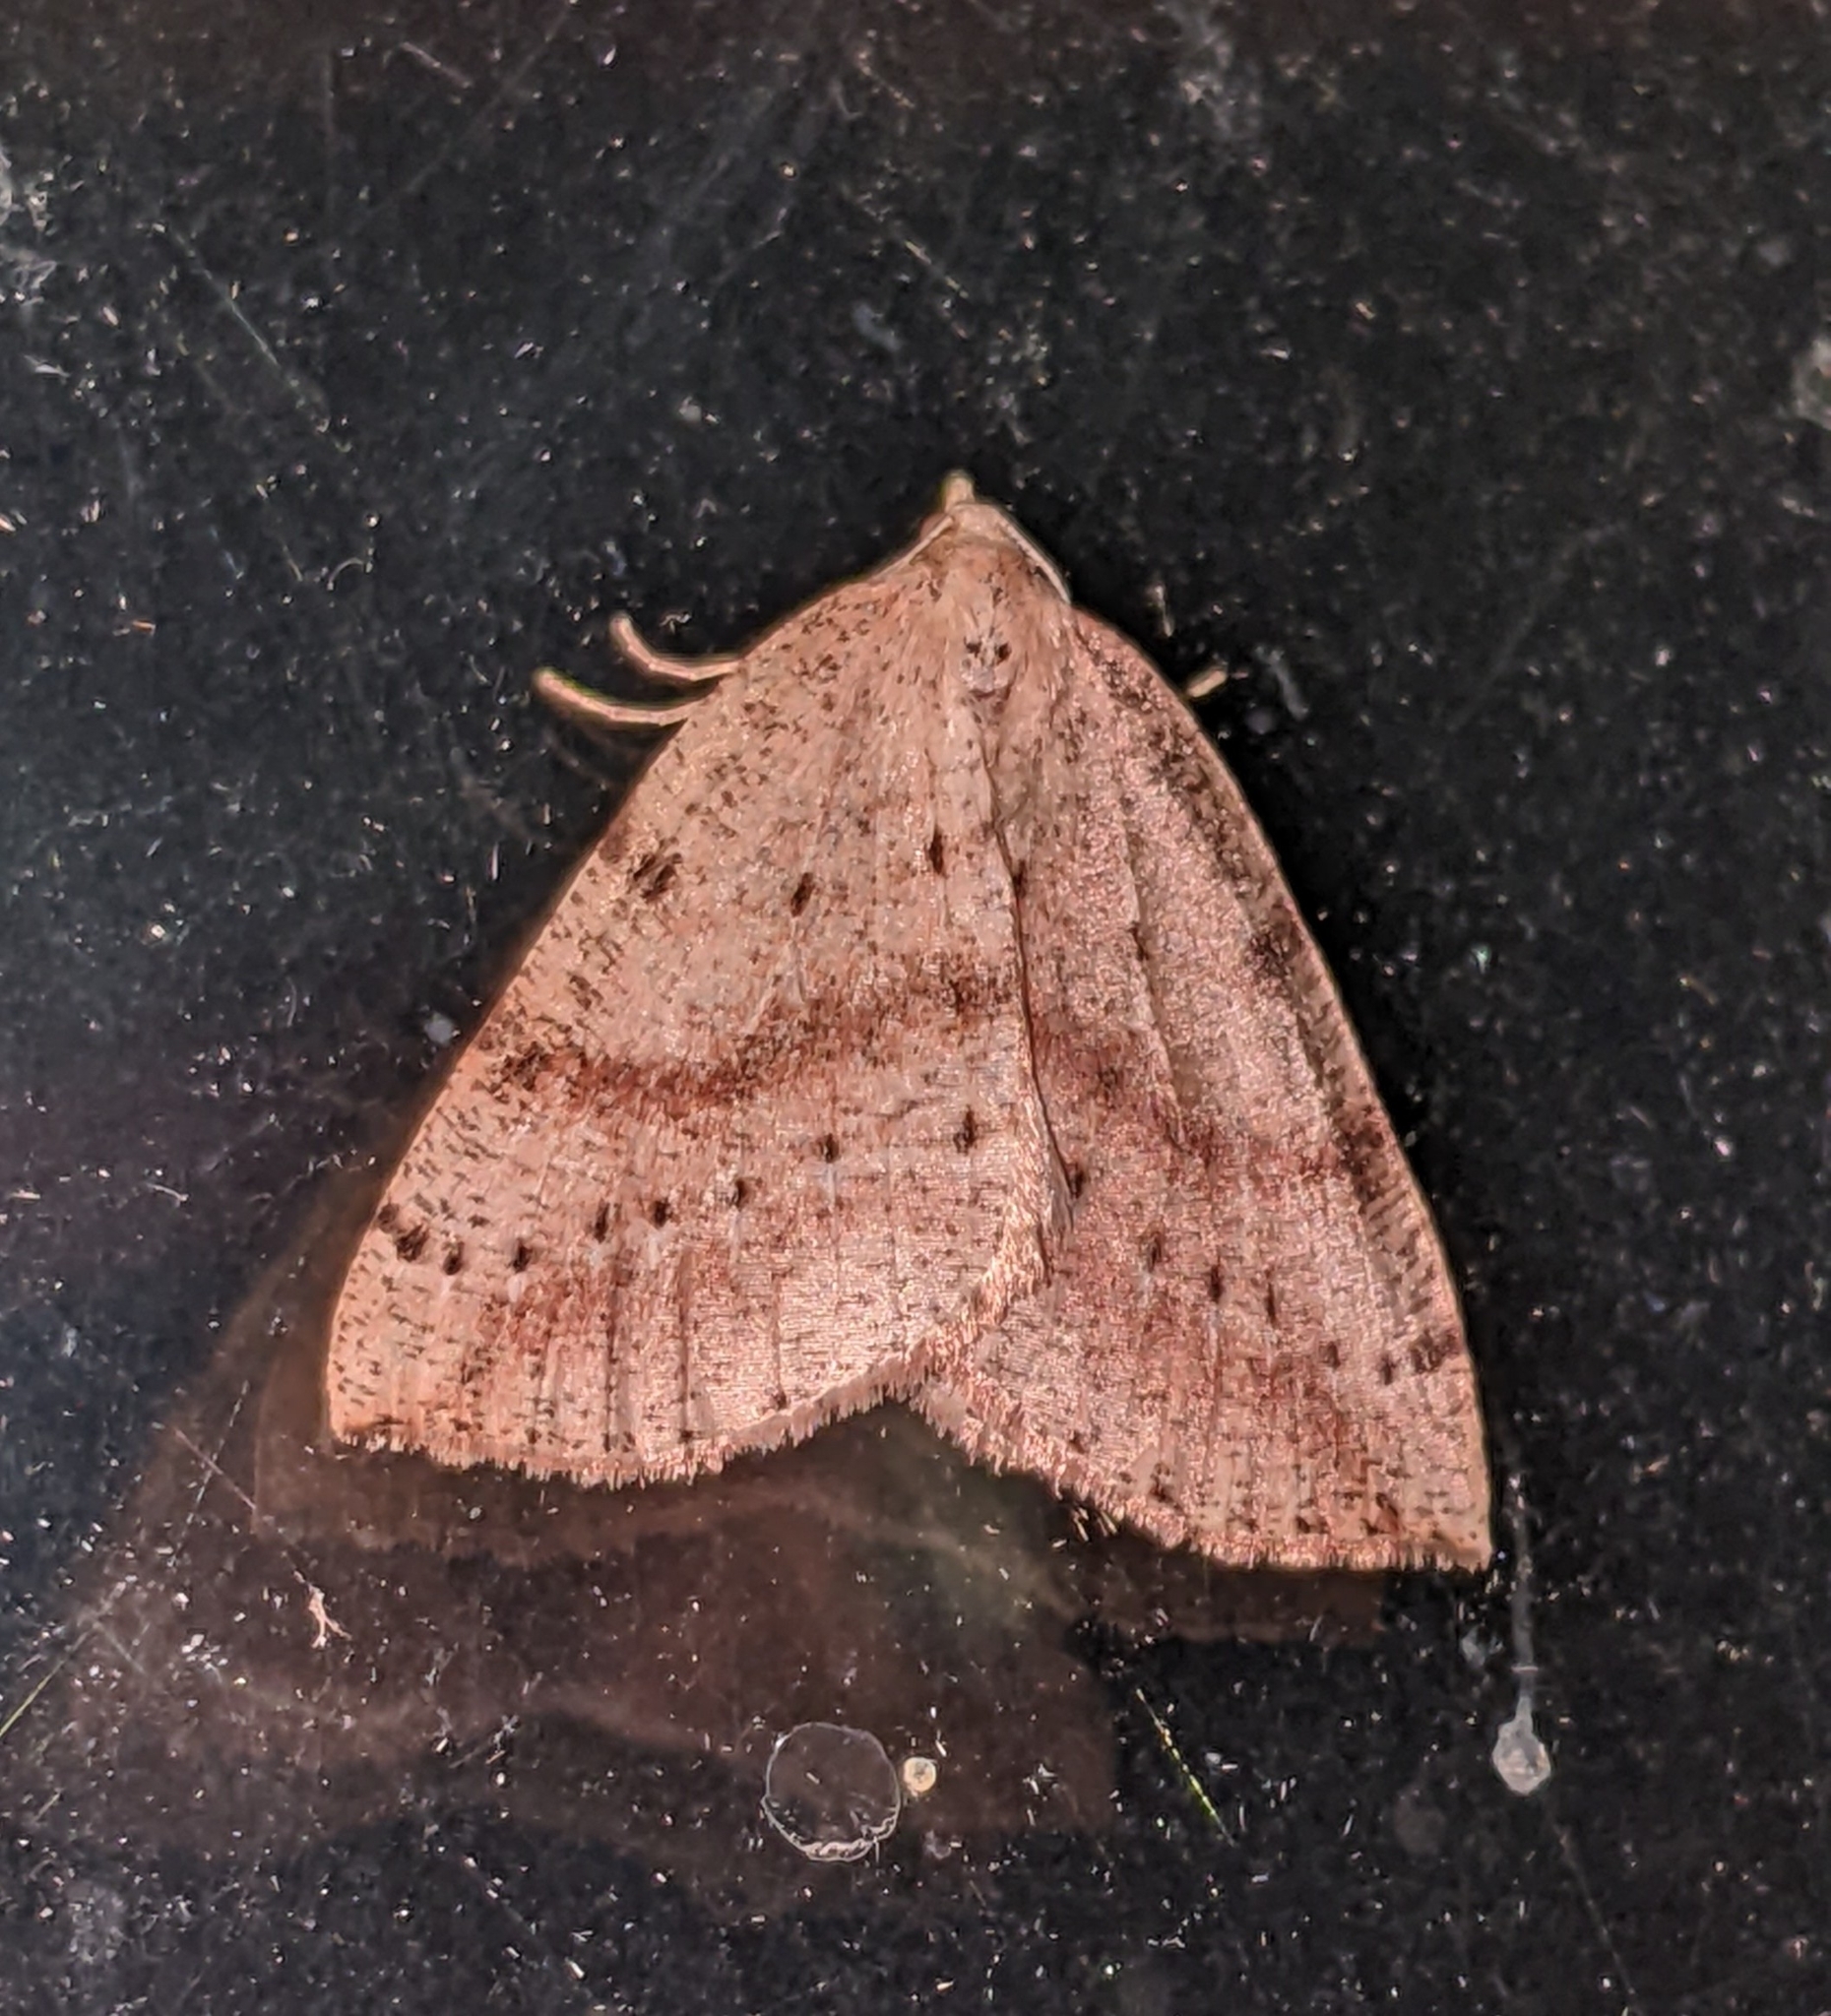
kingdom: Animalia
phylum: Arthropoda
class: Insecta
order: Lepidoptera
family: Geometridae
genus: Thallophaga
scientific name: Thallophaga hyperborea
